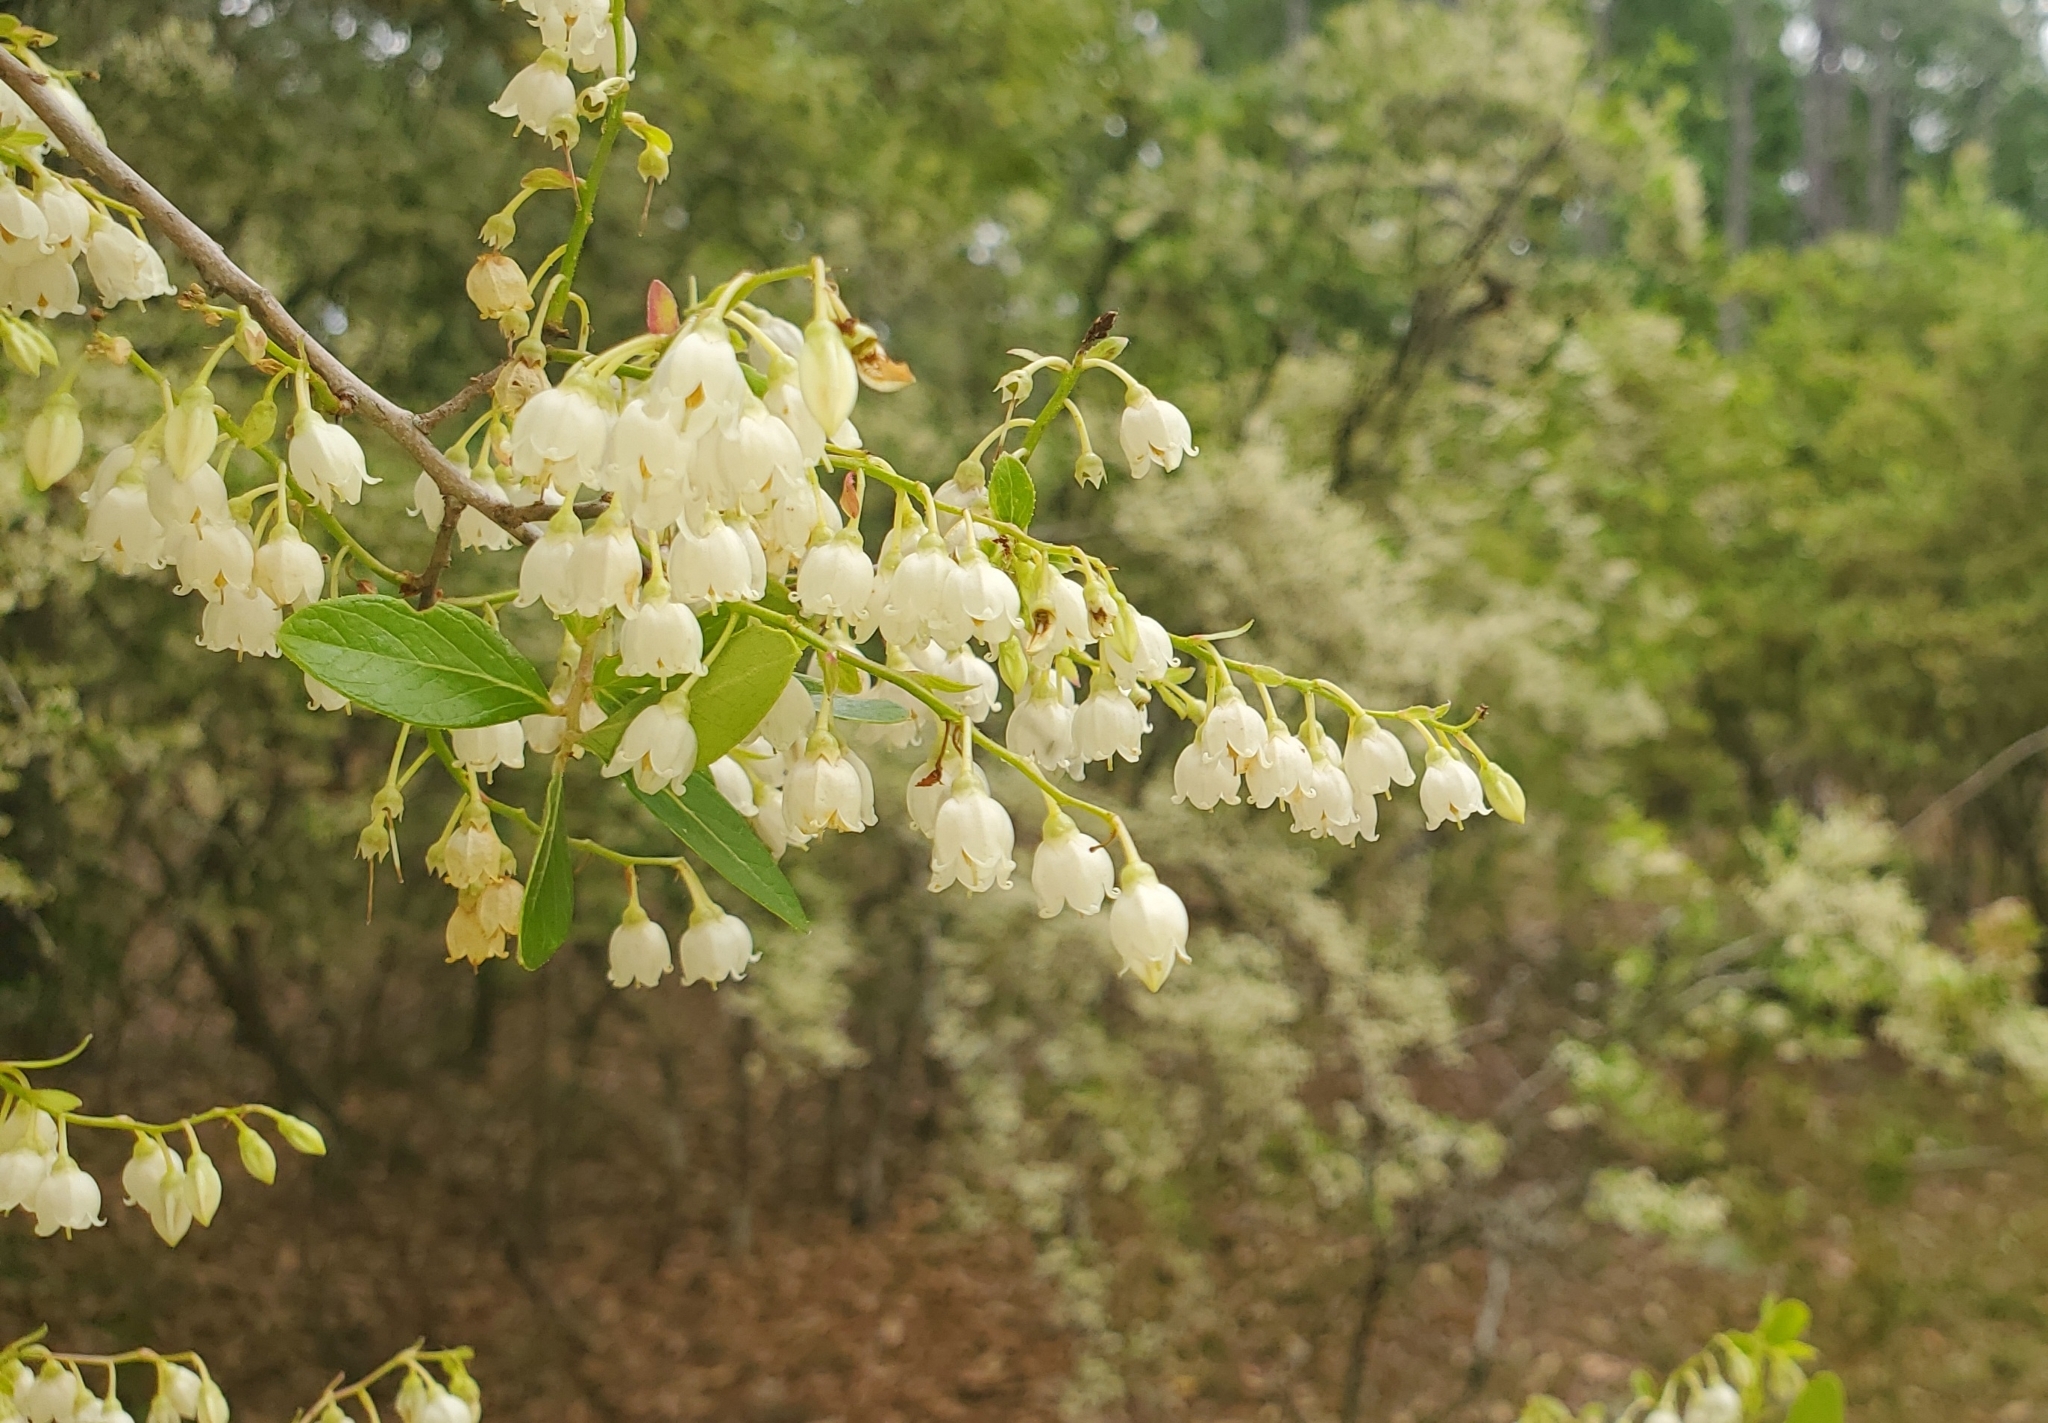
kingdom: Plantae
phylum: Tracheophyta
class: Magnoliopsida
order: Ericales
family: Ericaceae
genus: Vaccinium
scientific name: Vaccinium arboreum
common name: Farkleberry
